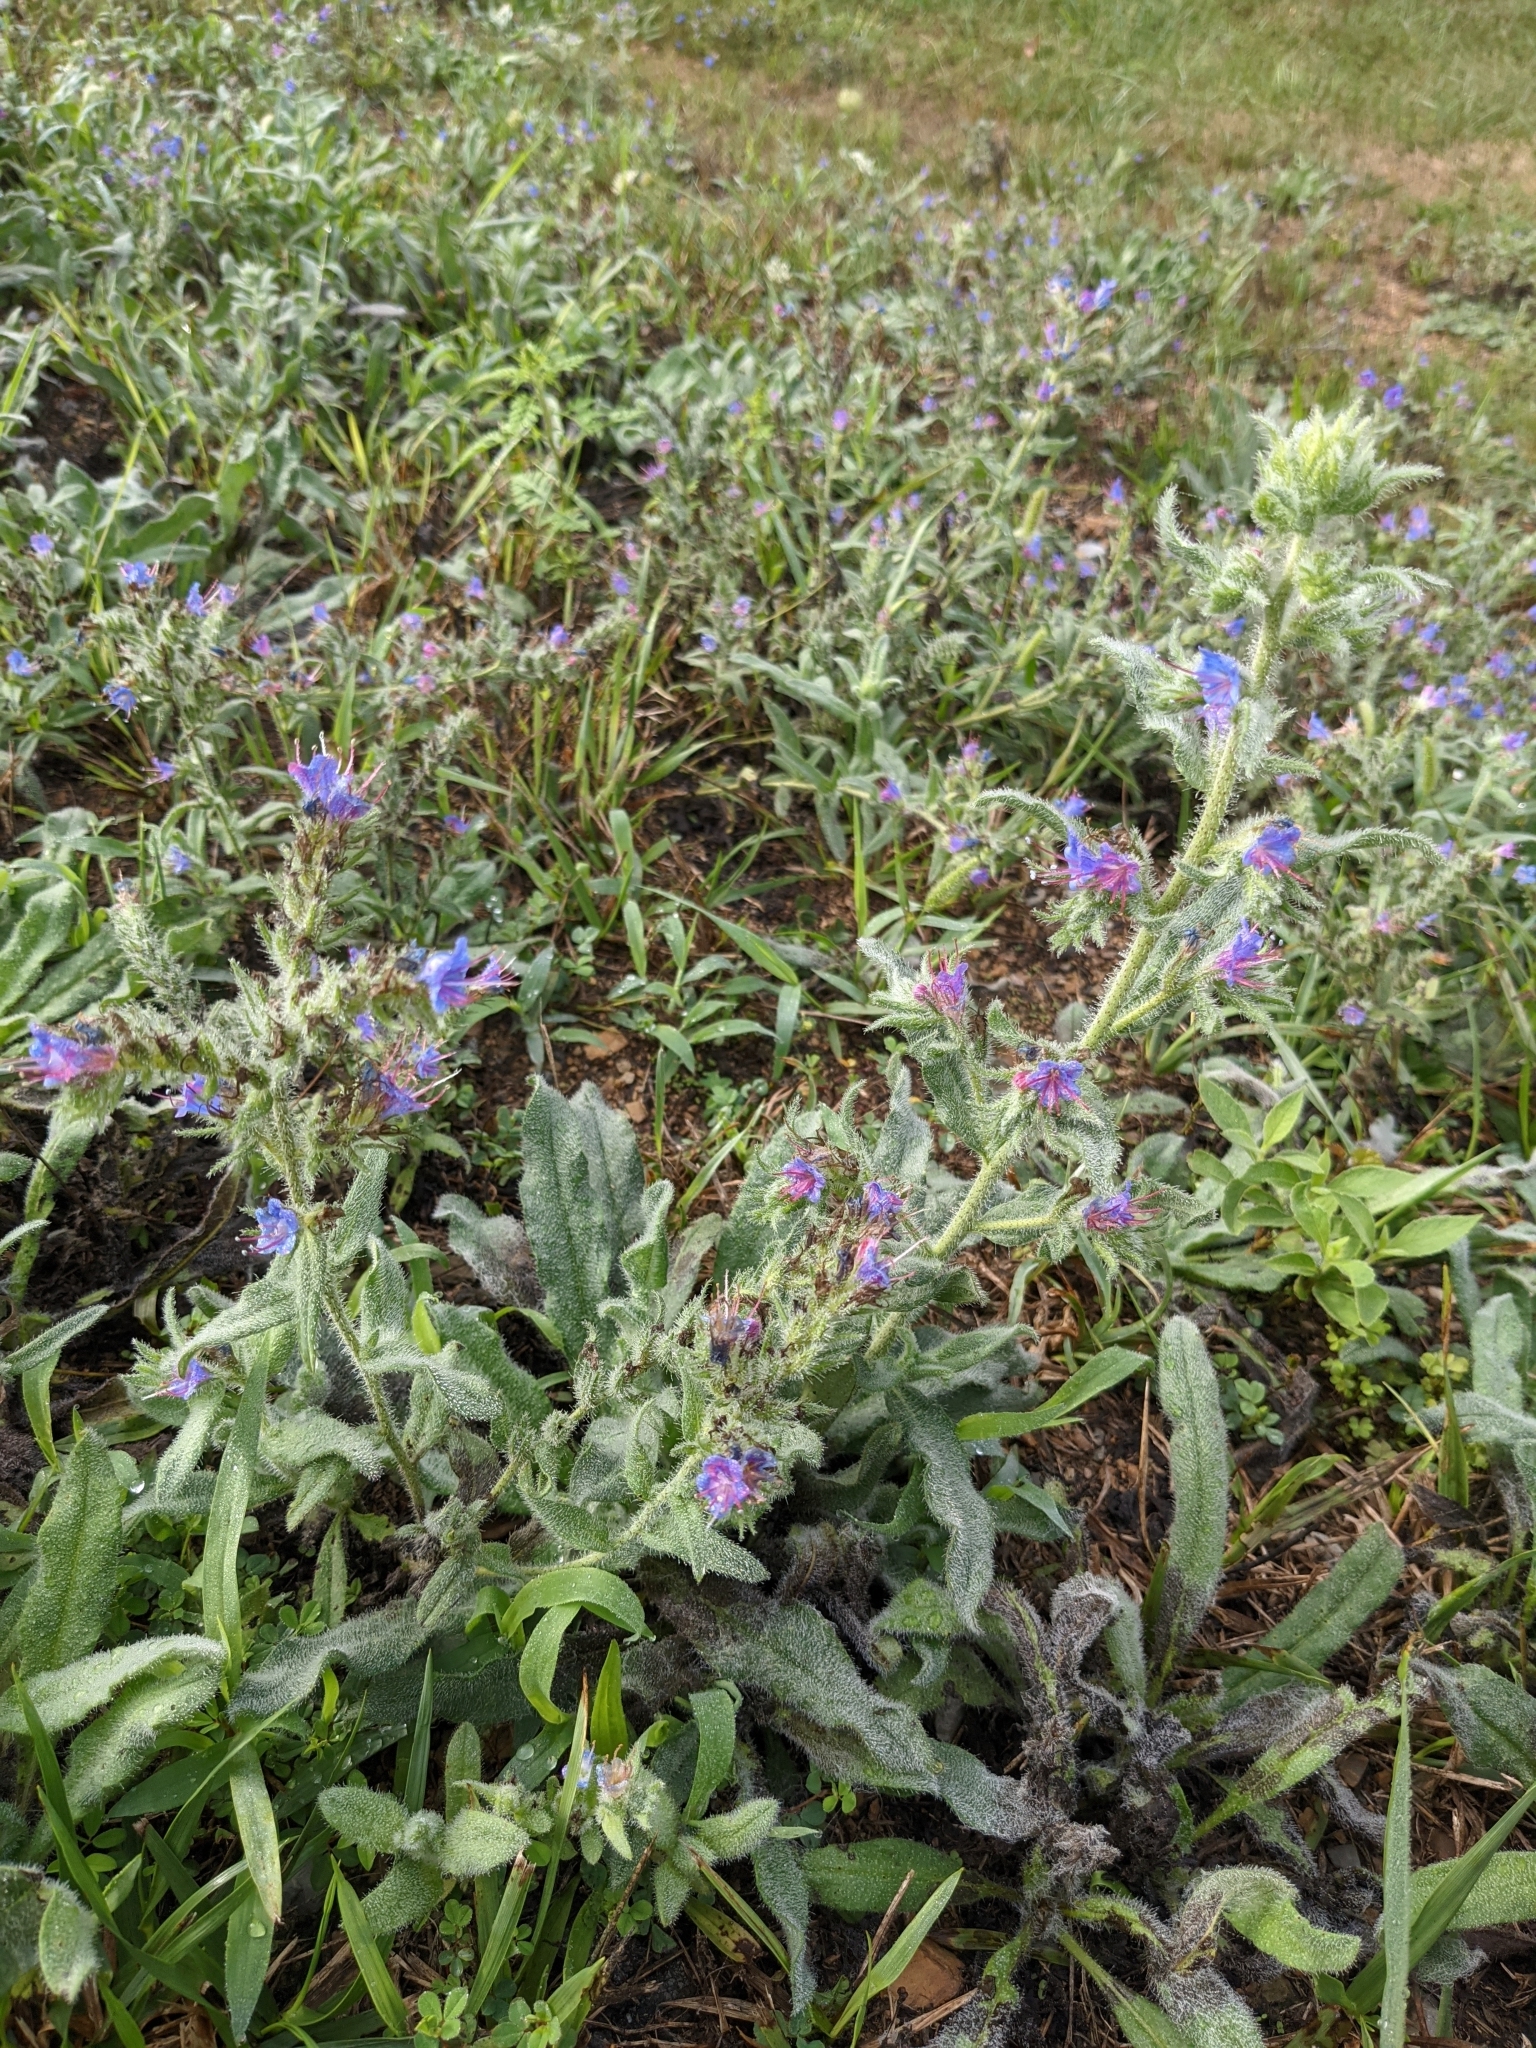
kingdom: Plantae
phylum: Tracheophyta
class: Magnoliopsida
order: Boraginales
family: Boraginaceae
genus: Echium
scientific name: Echium vulgare
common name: Common viper's bugloss
